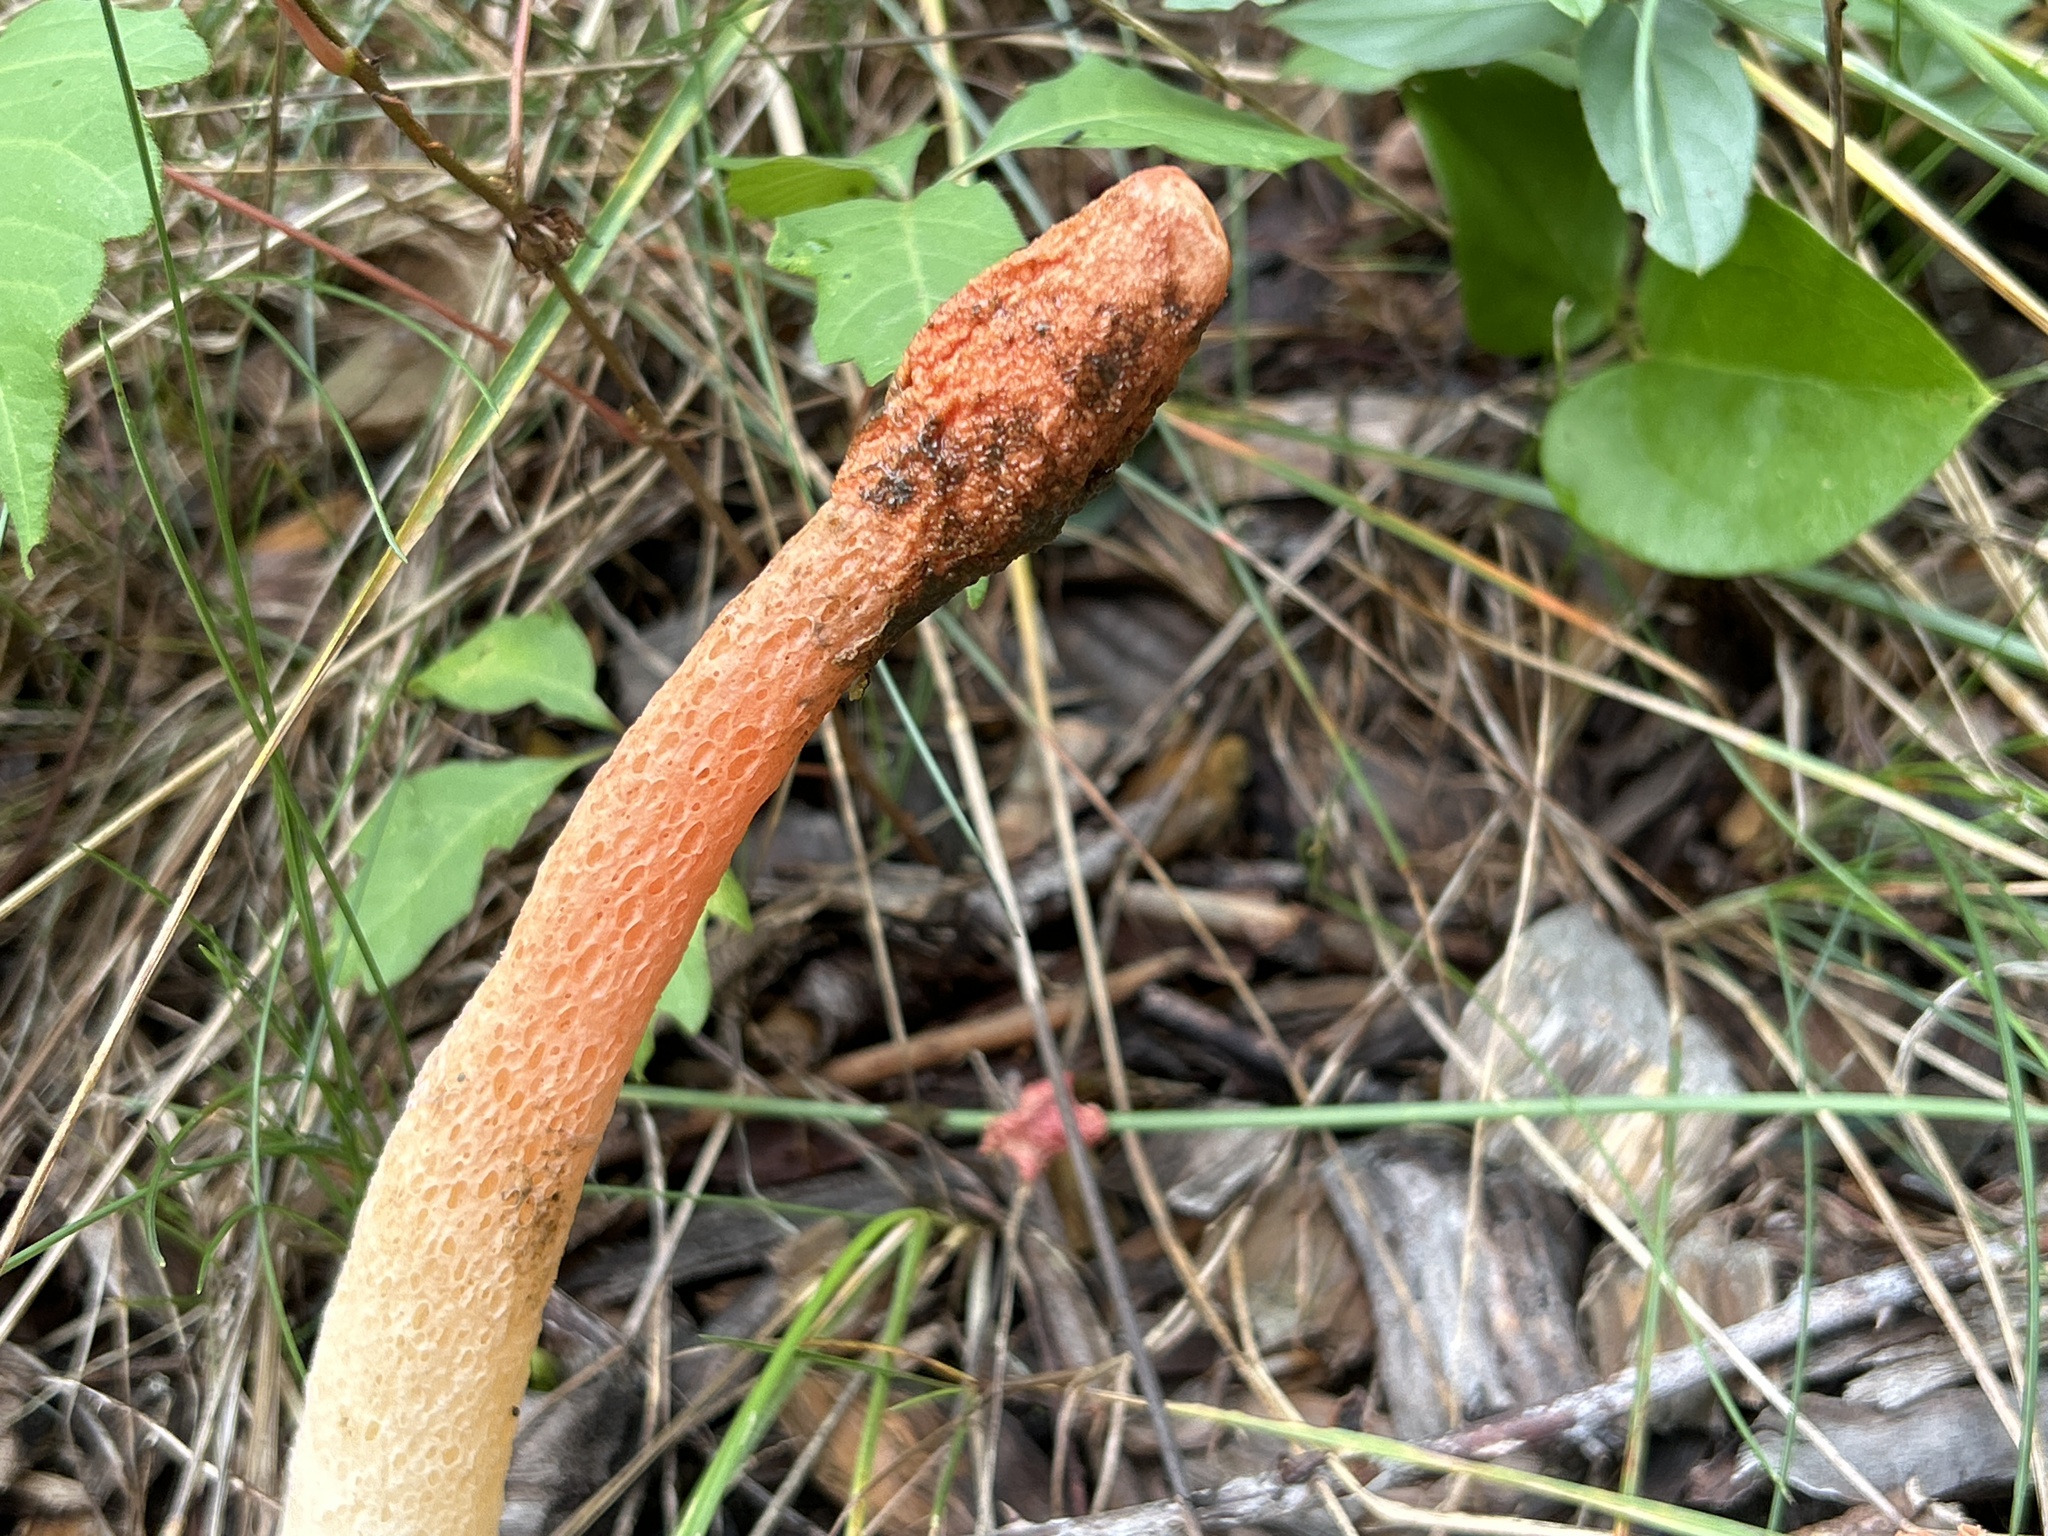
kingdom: Fungi
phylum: Basidiomycota
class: Agaricomycetes
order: Phallales
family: Phallaceae
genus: Phallus
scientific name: Phallus rugulosus
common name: Wrinkly stinkhorn
